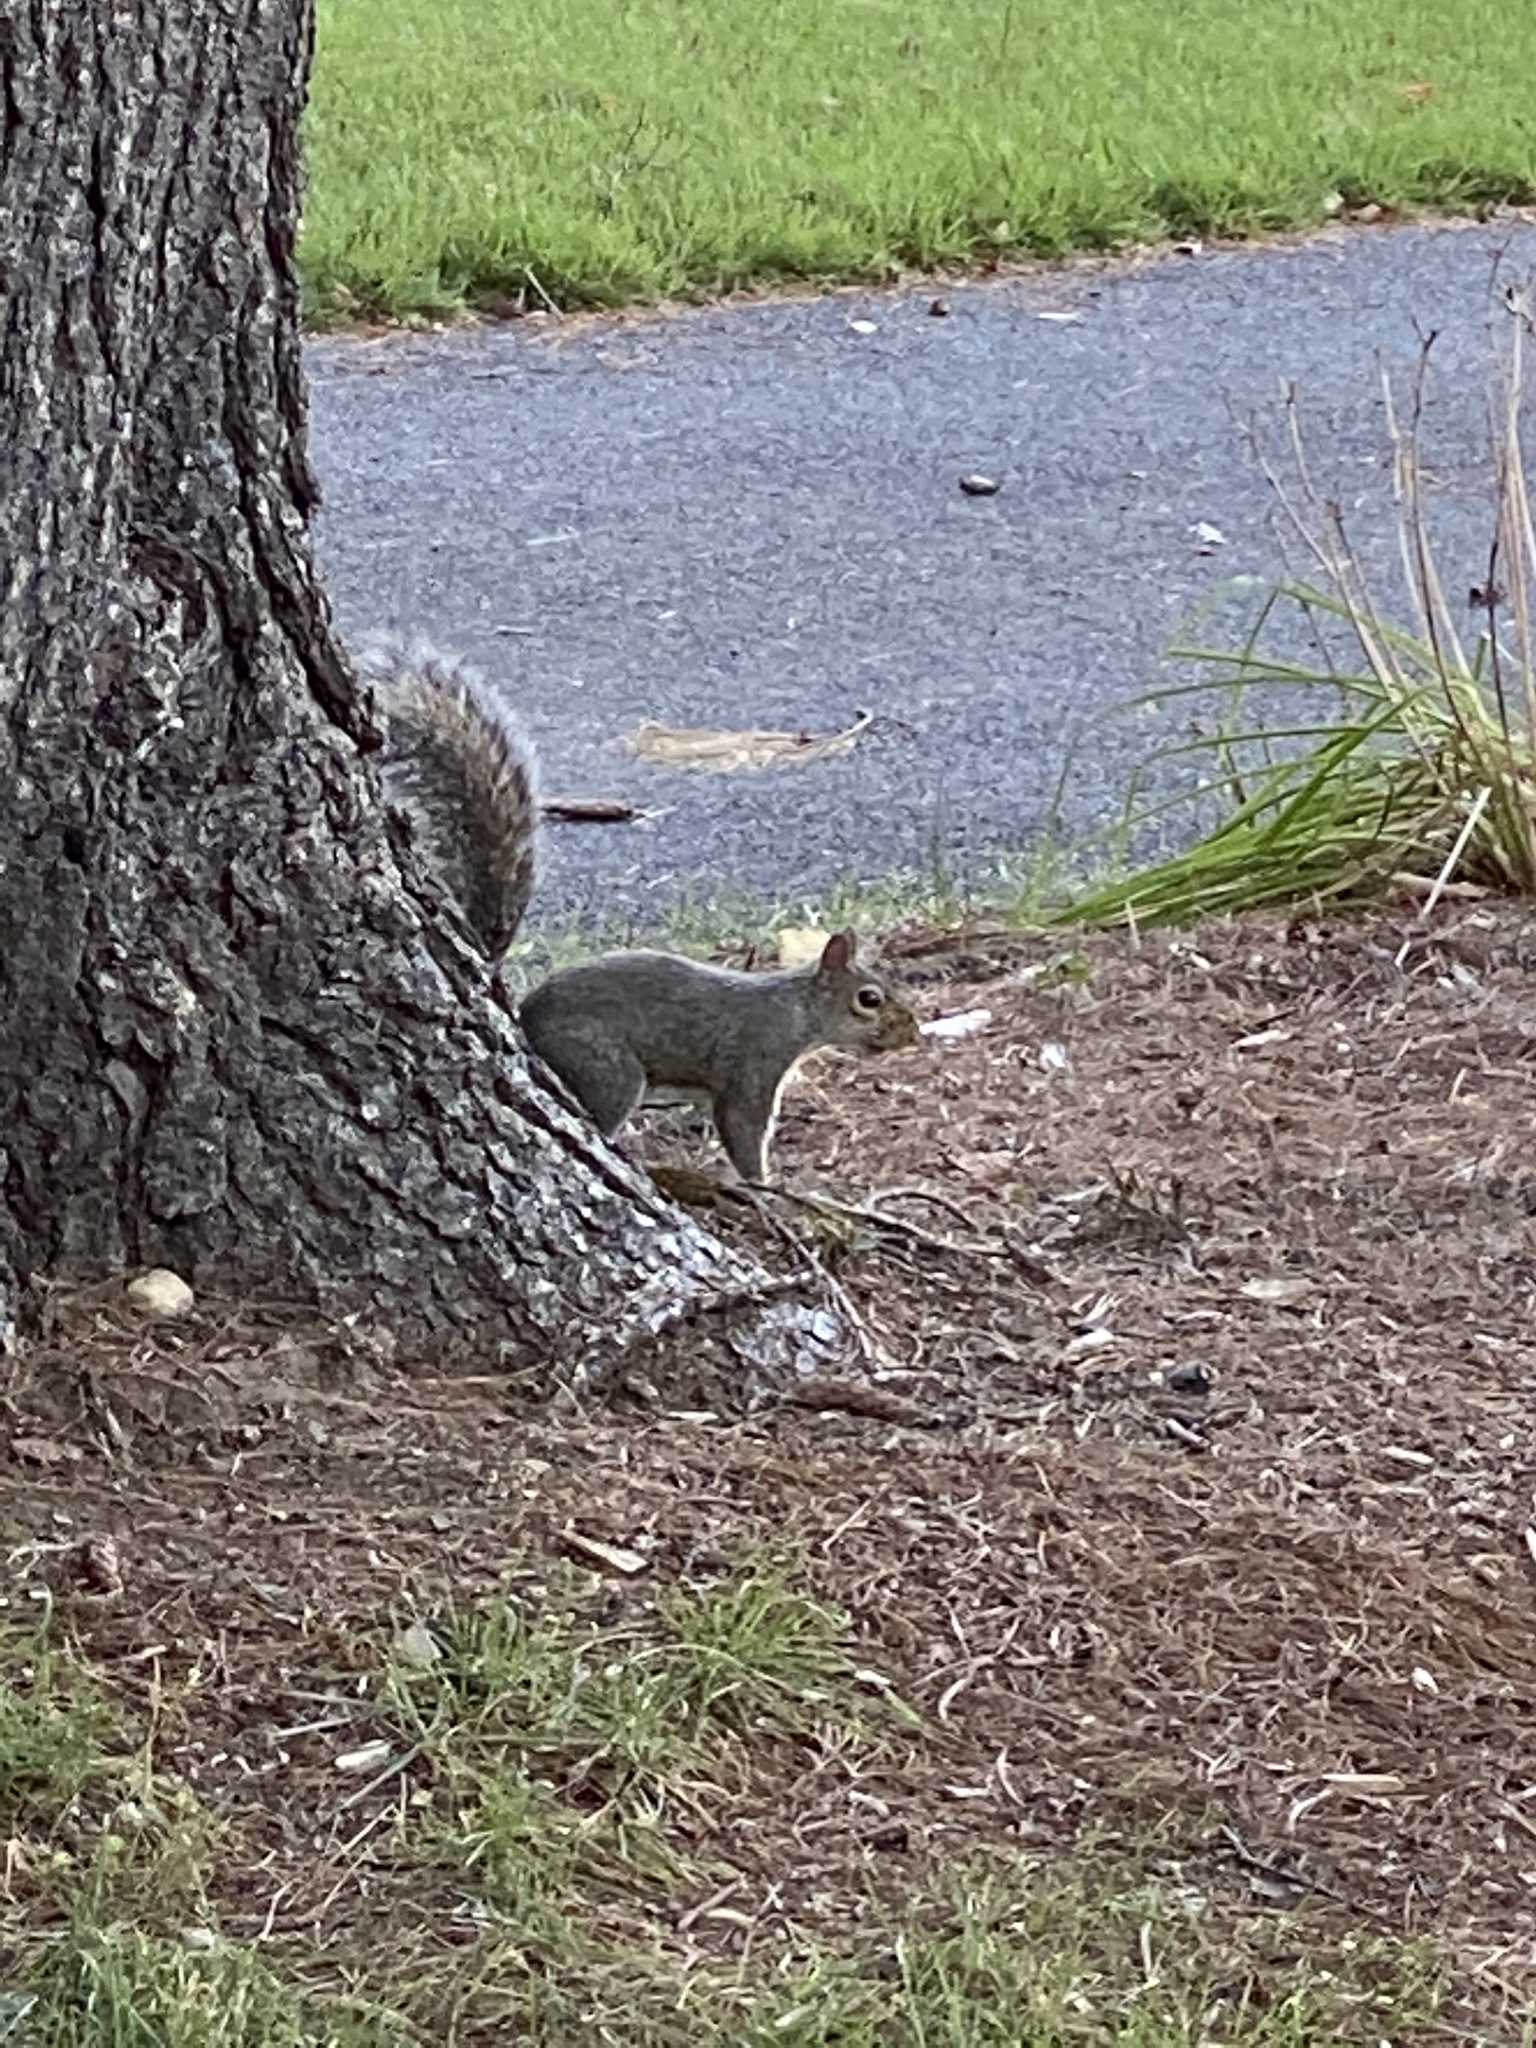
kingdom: Animalia
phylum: Chordata
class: Mammalia
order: Rodentia
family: Sciuridae
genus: Sciurus
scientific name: Sciurus carolinensis
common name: Eastern gray squirrel
